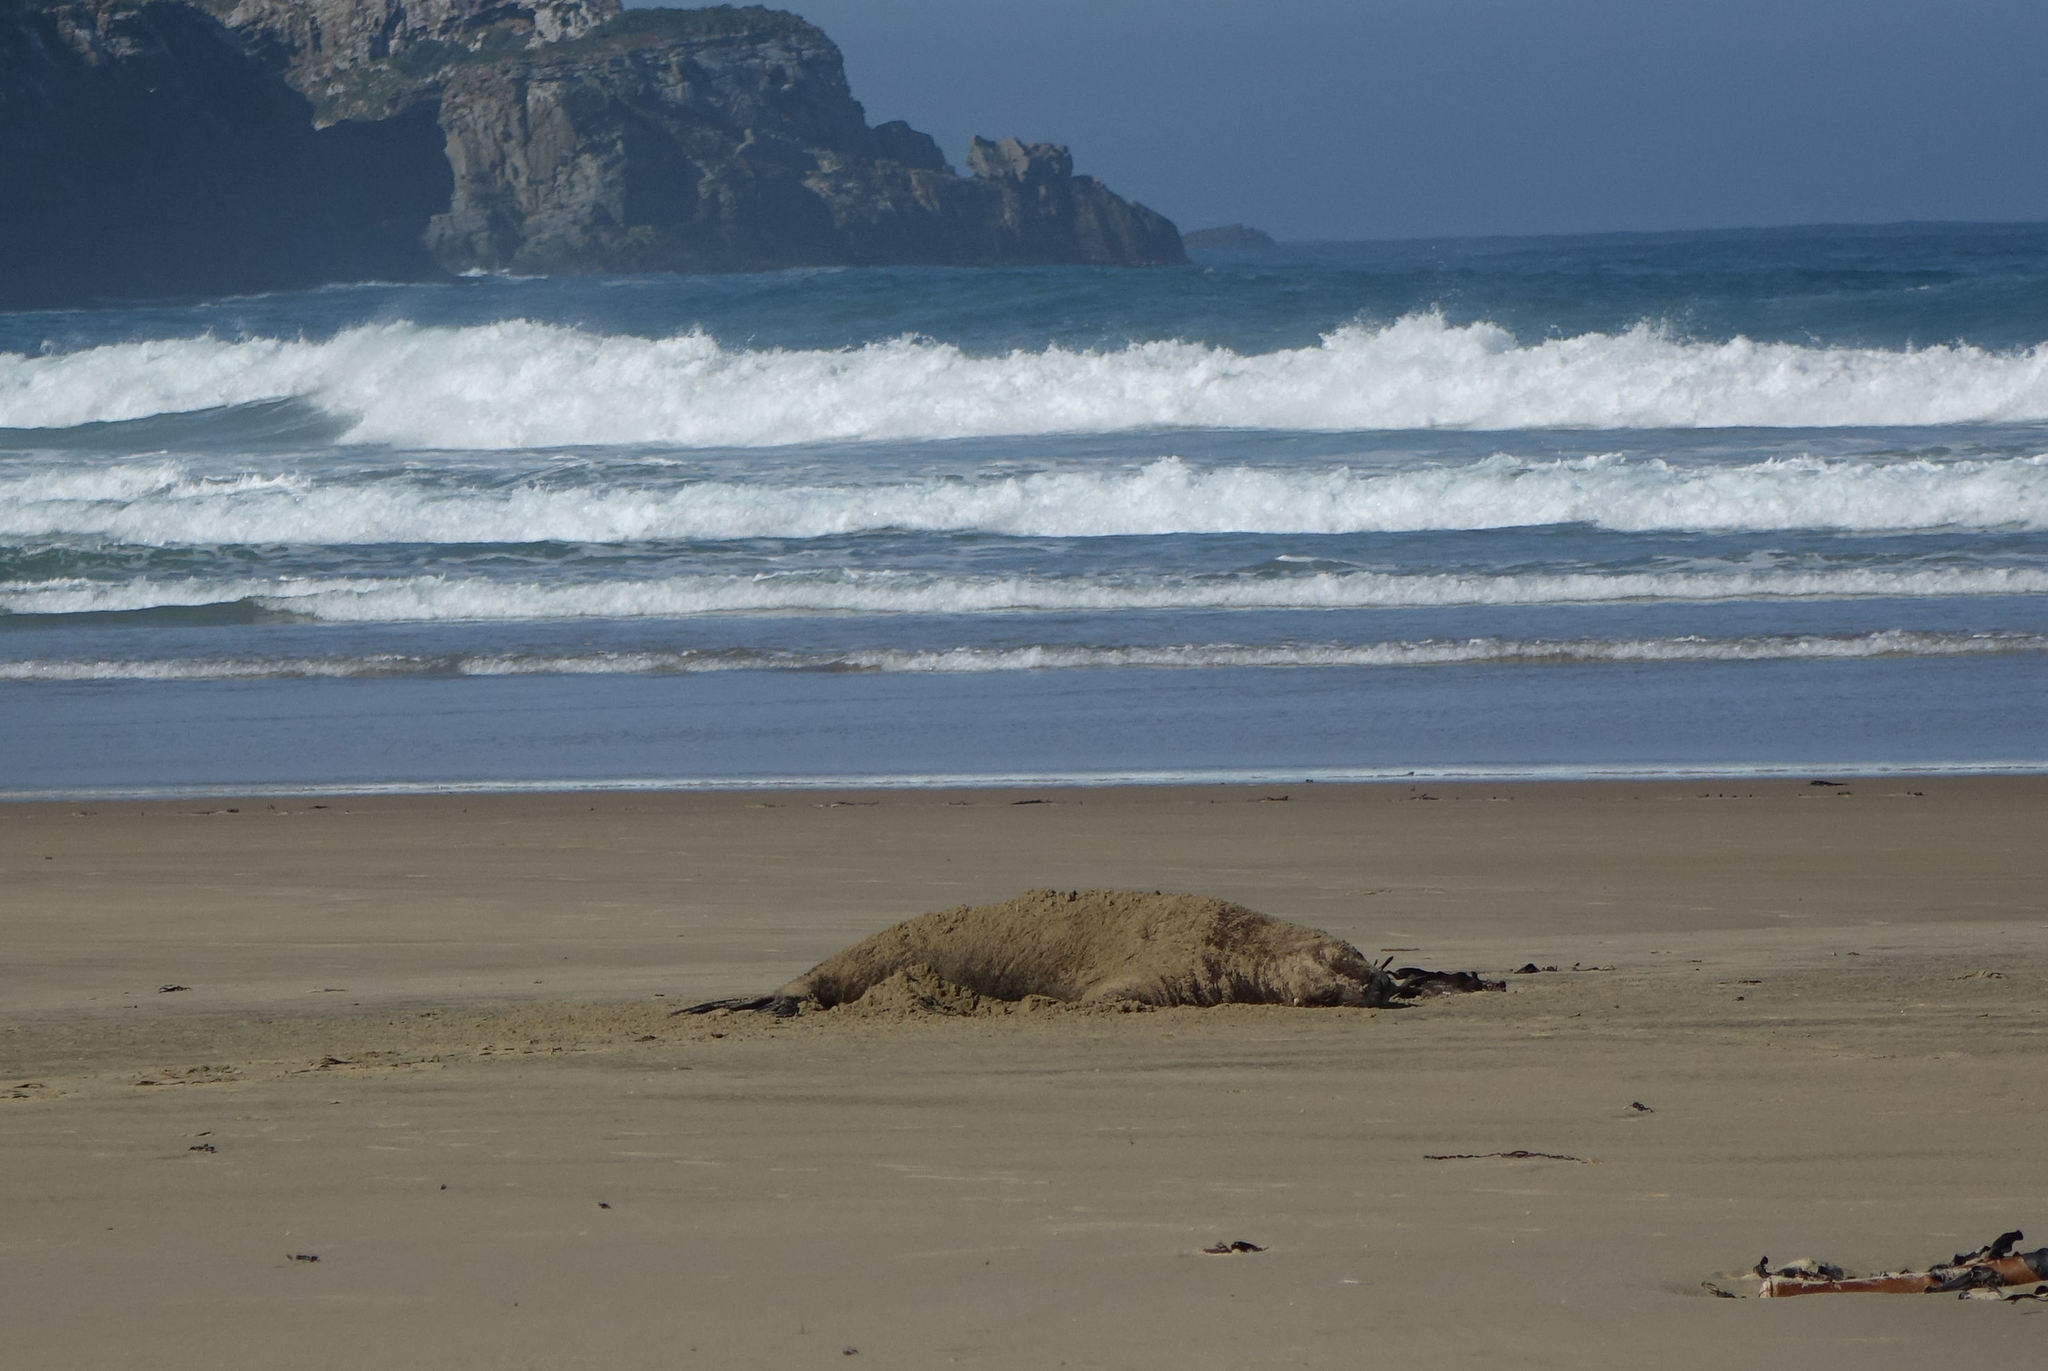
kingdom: Animalia
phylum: Chordata
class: Mammalia
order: Carnivora
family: Otariidae
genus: Phocarctos
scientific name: Phocarctos hookeri
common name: New zealand sea lion
